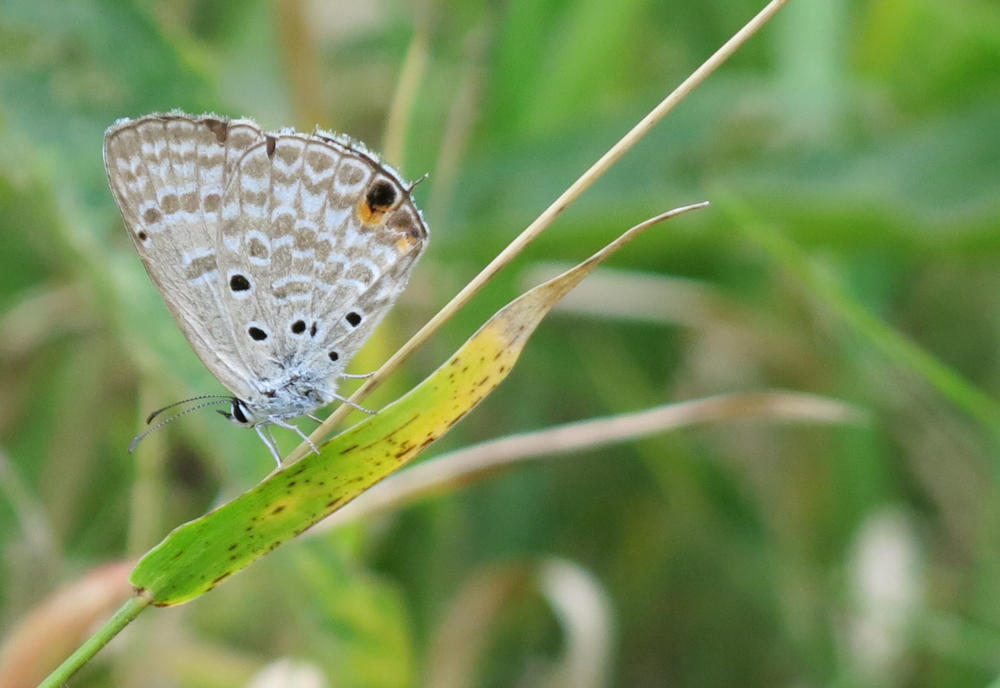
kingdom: Animalia
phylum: Arthropoda
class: Insecta
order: Lepidoptera
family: Lycaenidae
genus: Lepidochrysops
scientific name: Lepidochrysops plebeia
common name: Twin-spot giant cupid
